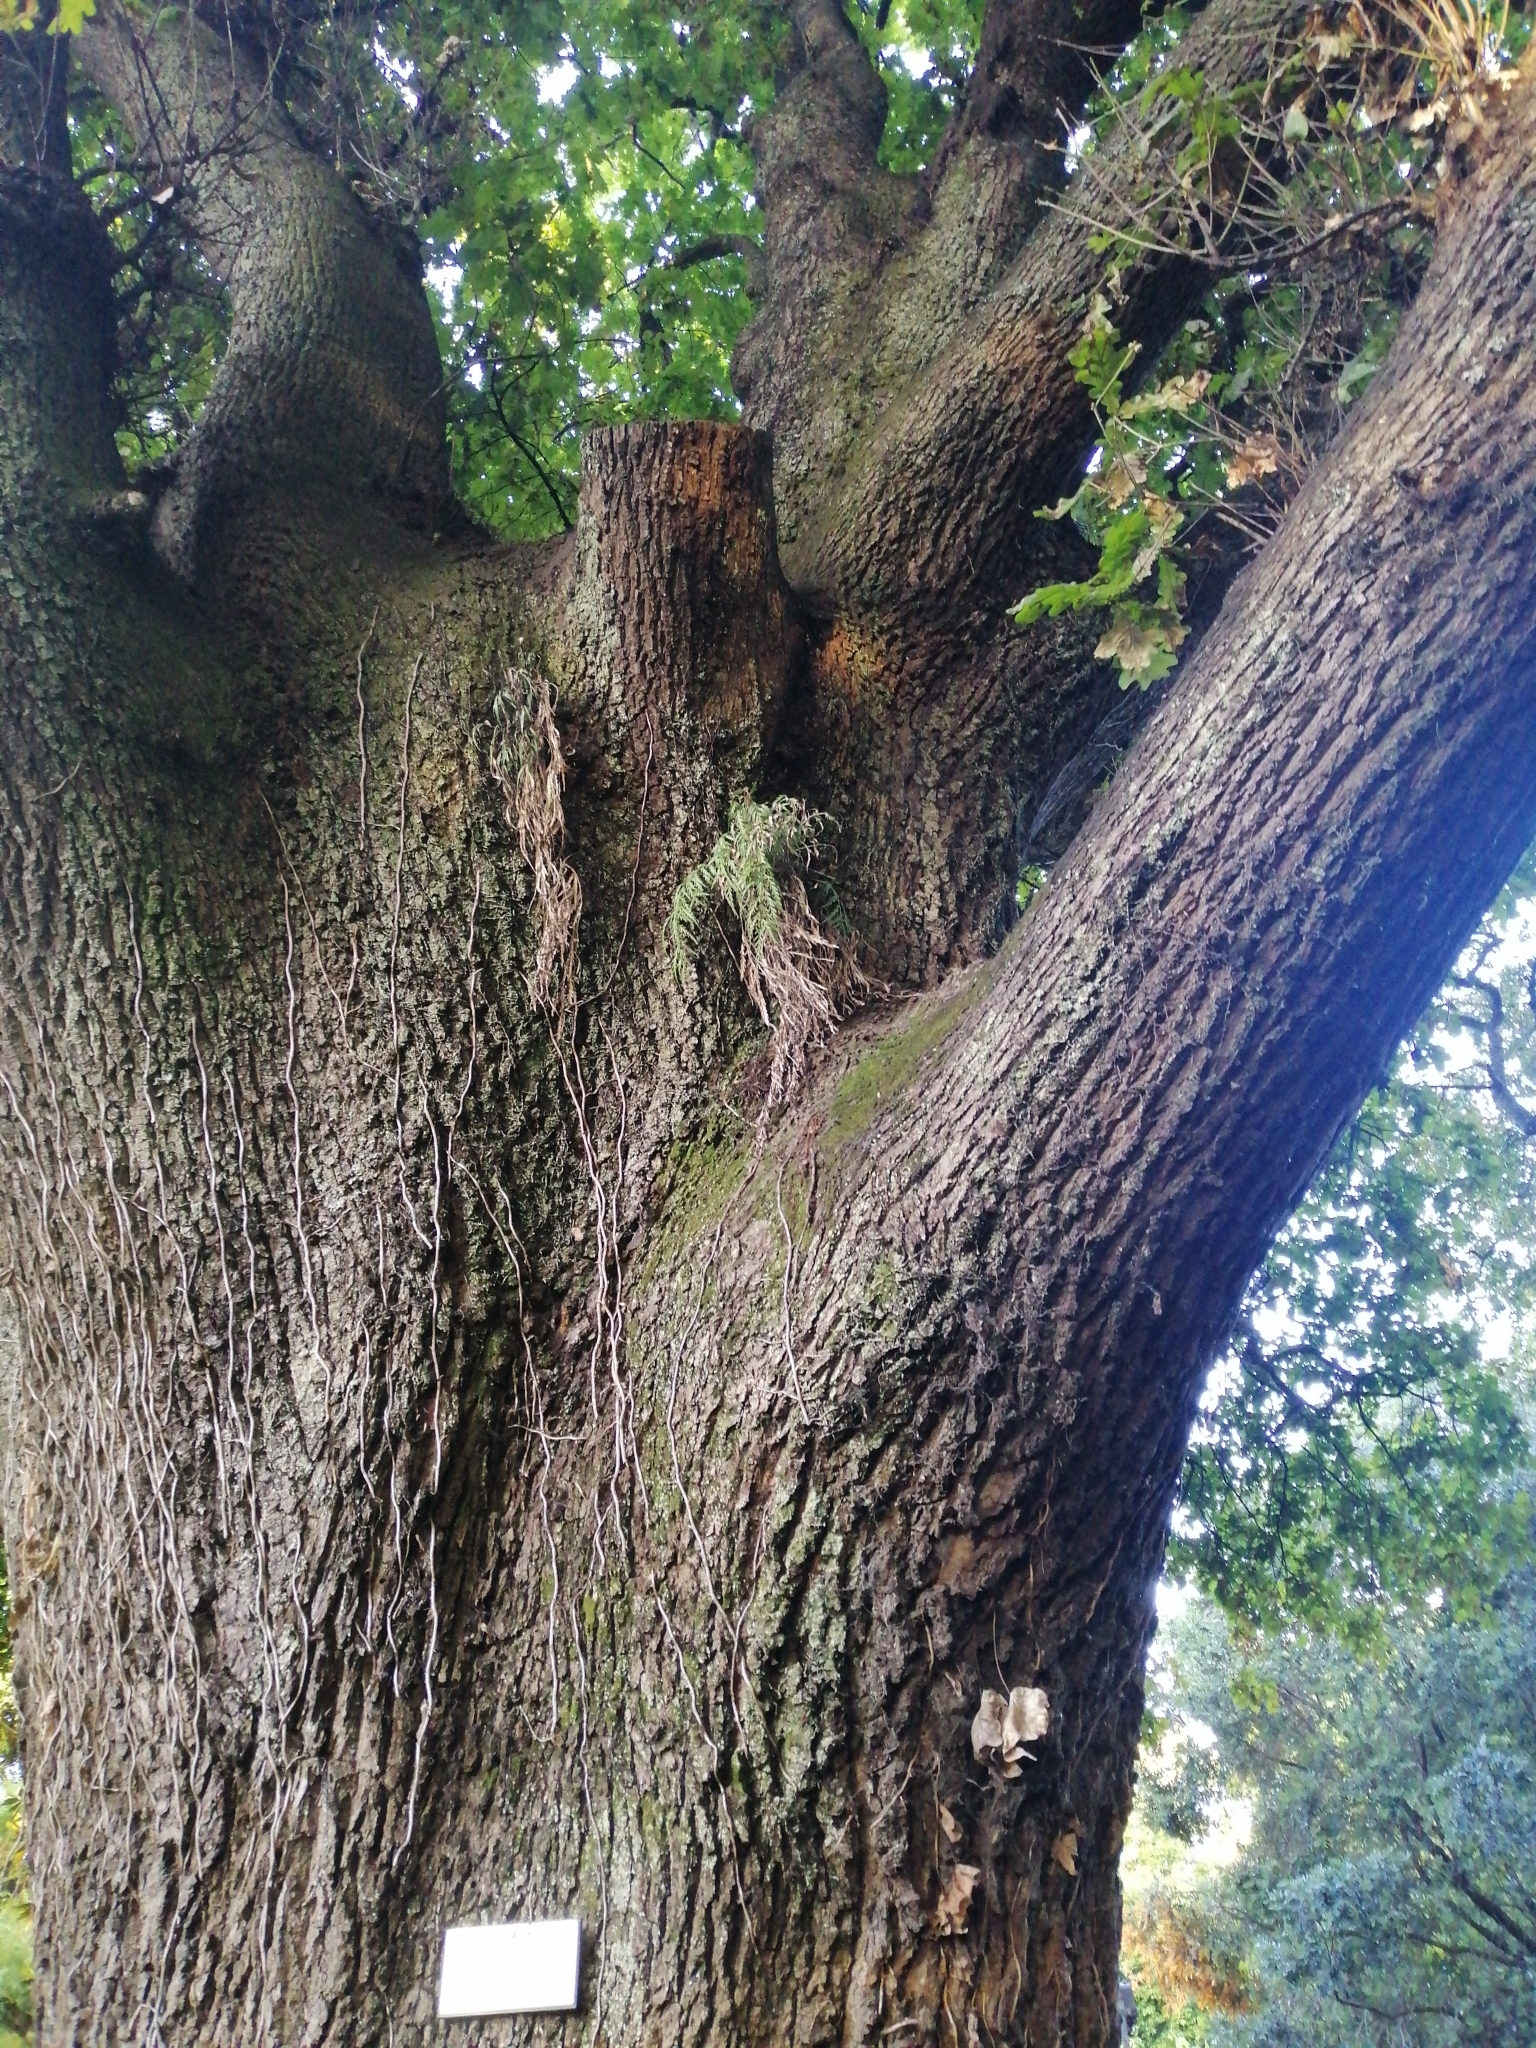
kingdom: Plantae
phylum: Tracheophyta
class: Polypodiopsida
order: Polypodiales
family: Aspleniaceae
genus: Asplenium
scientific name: Asplenium flaccidum
